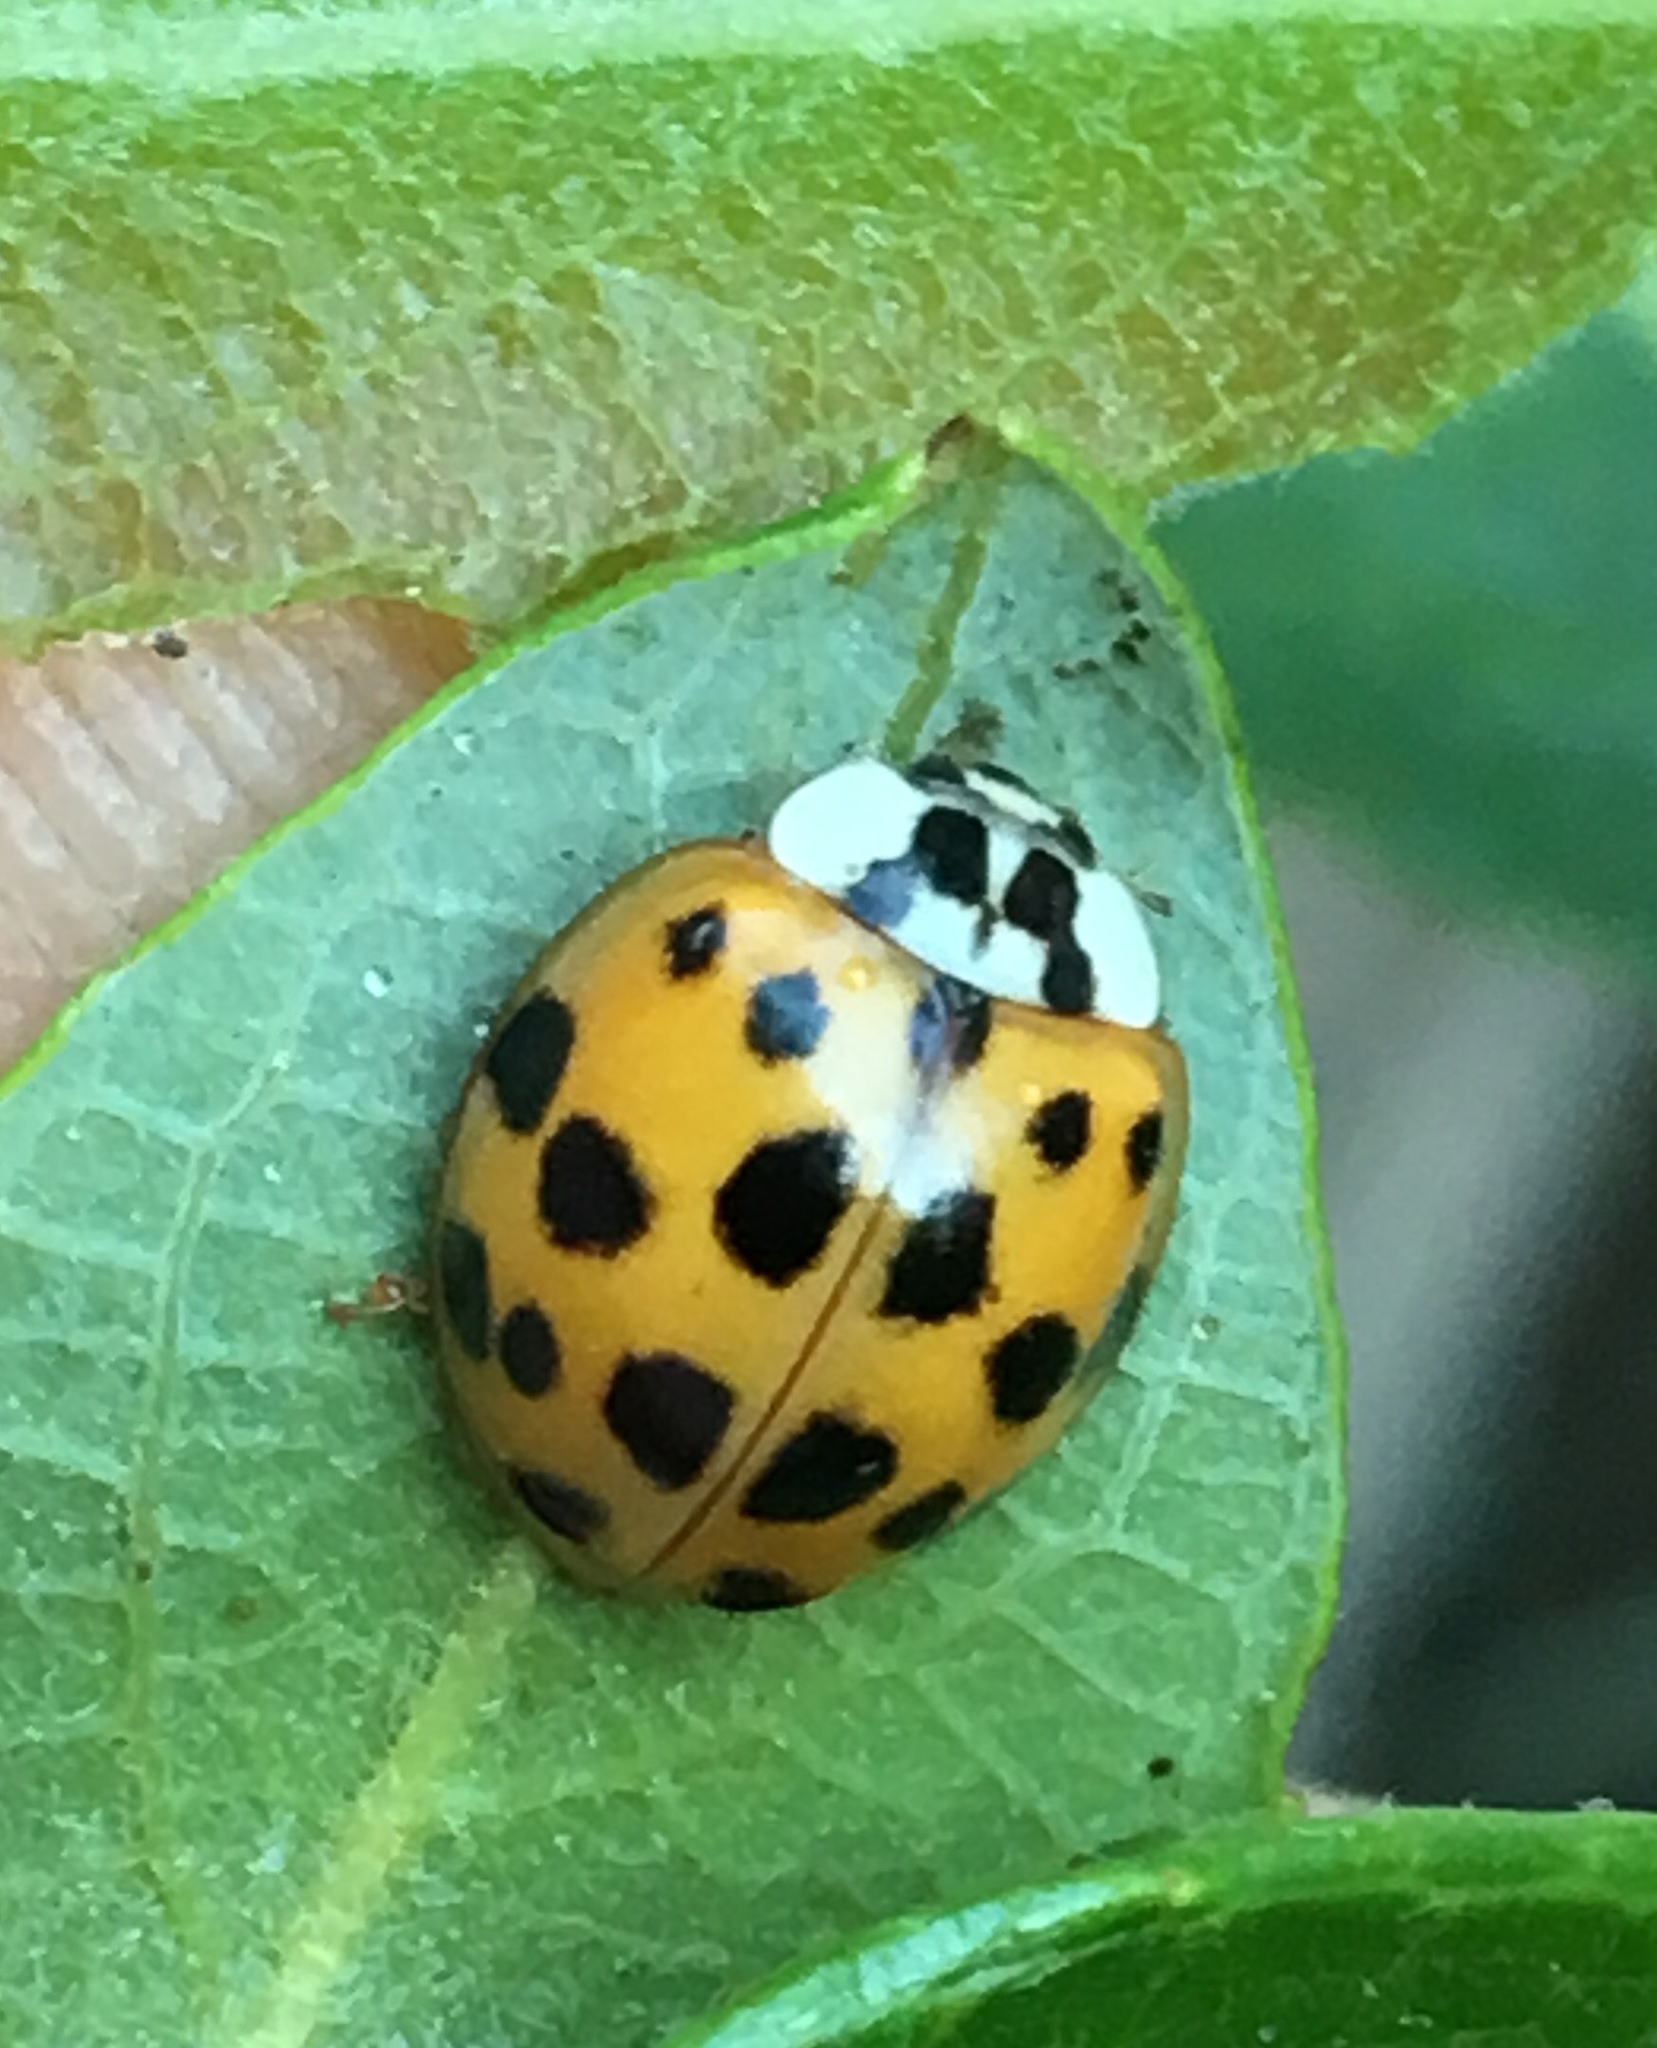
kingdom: Animalia
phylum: Arthropoda
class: Insecta
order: Coleoptera
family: Coccinellidae
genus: Harmonia
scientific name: Harmonia axyridis
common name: Harlequin ladybird
